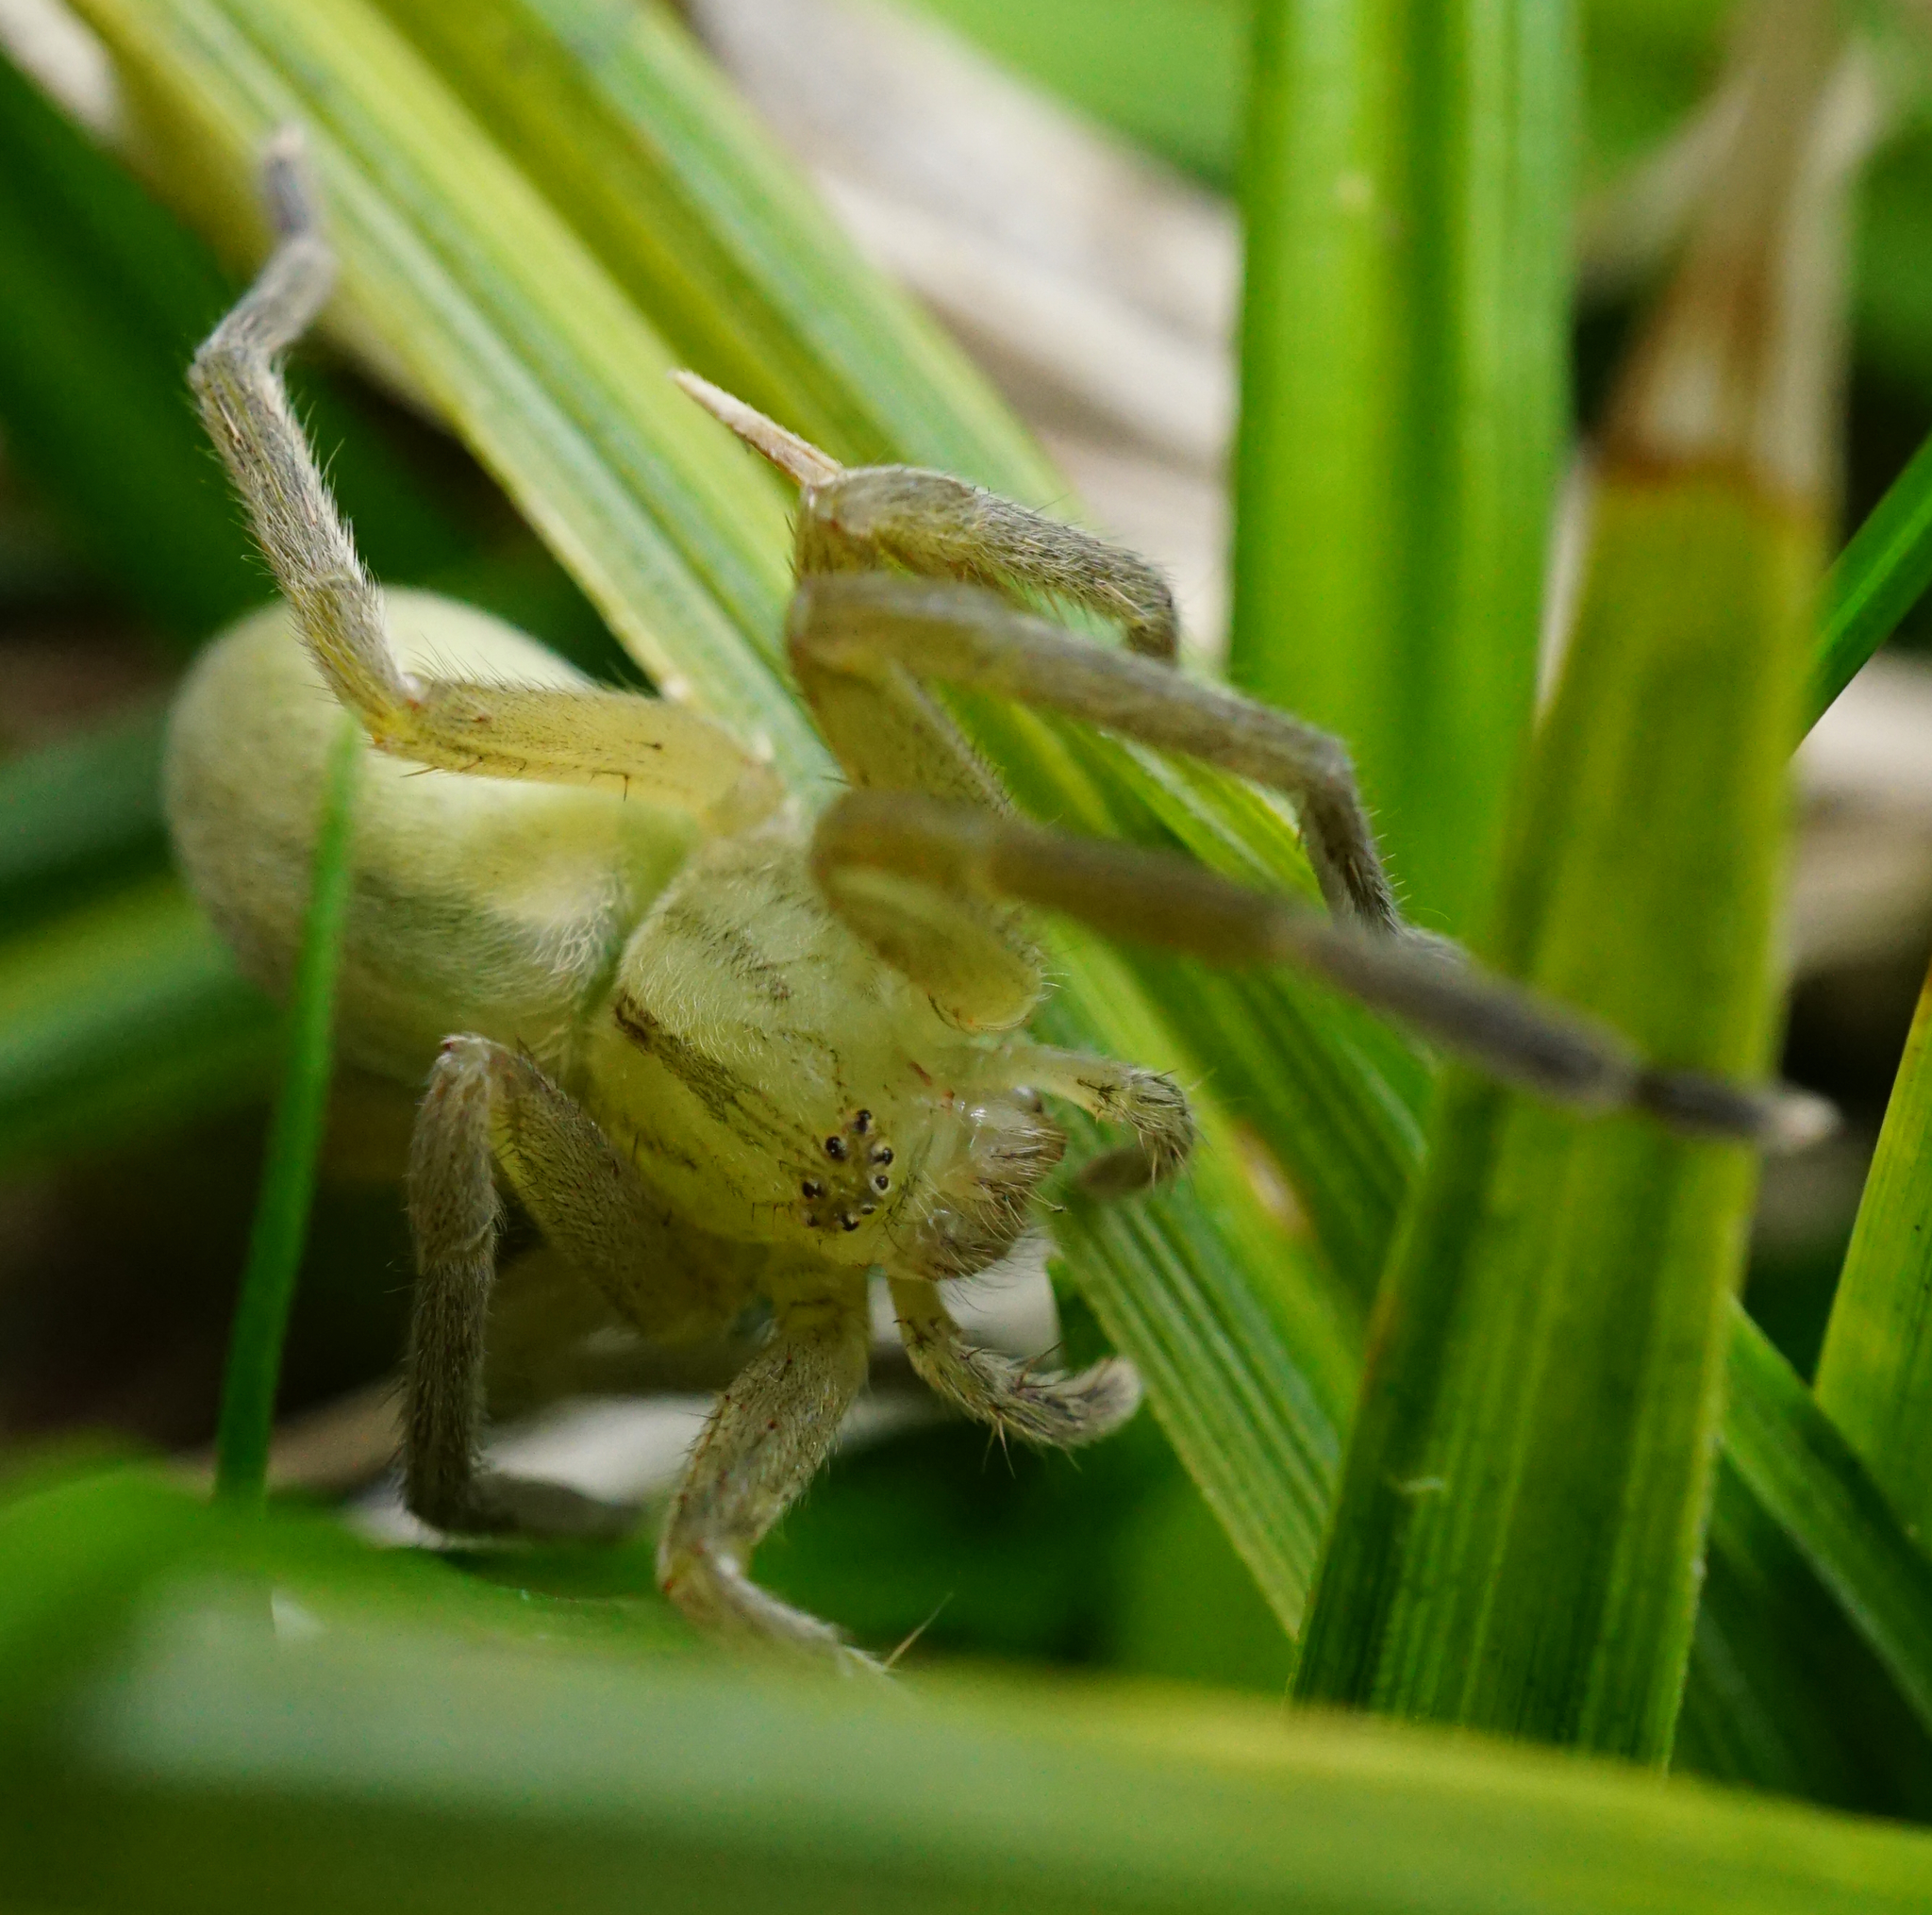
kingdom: Animalia
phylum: Arthropoda
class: Arachnida
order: Araneae
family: Sparassidae
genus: Micrommata
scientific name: Micrommata virescens
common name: Green spider
